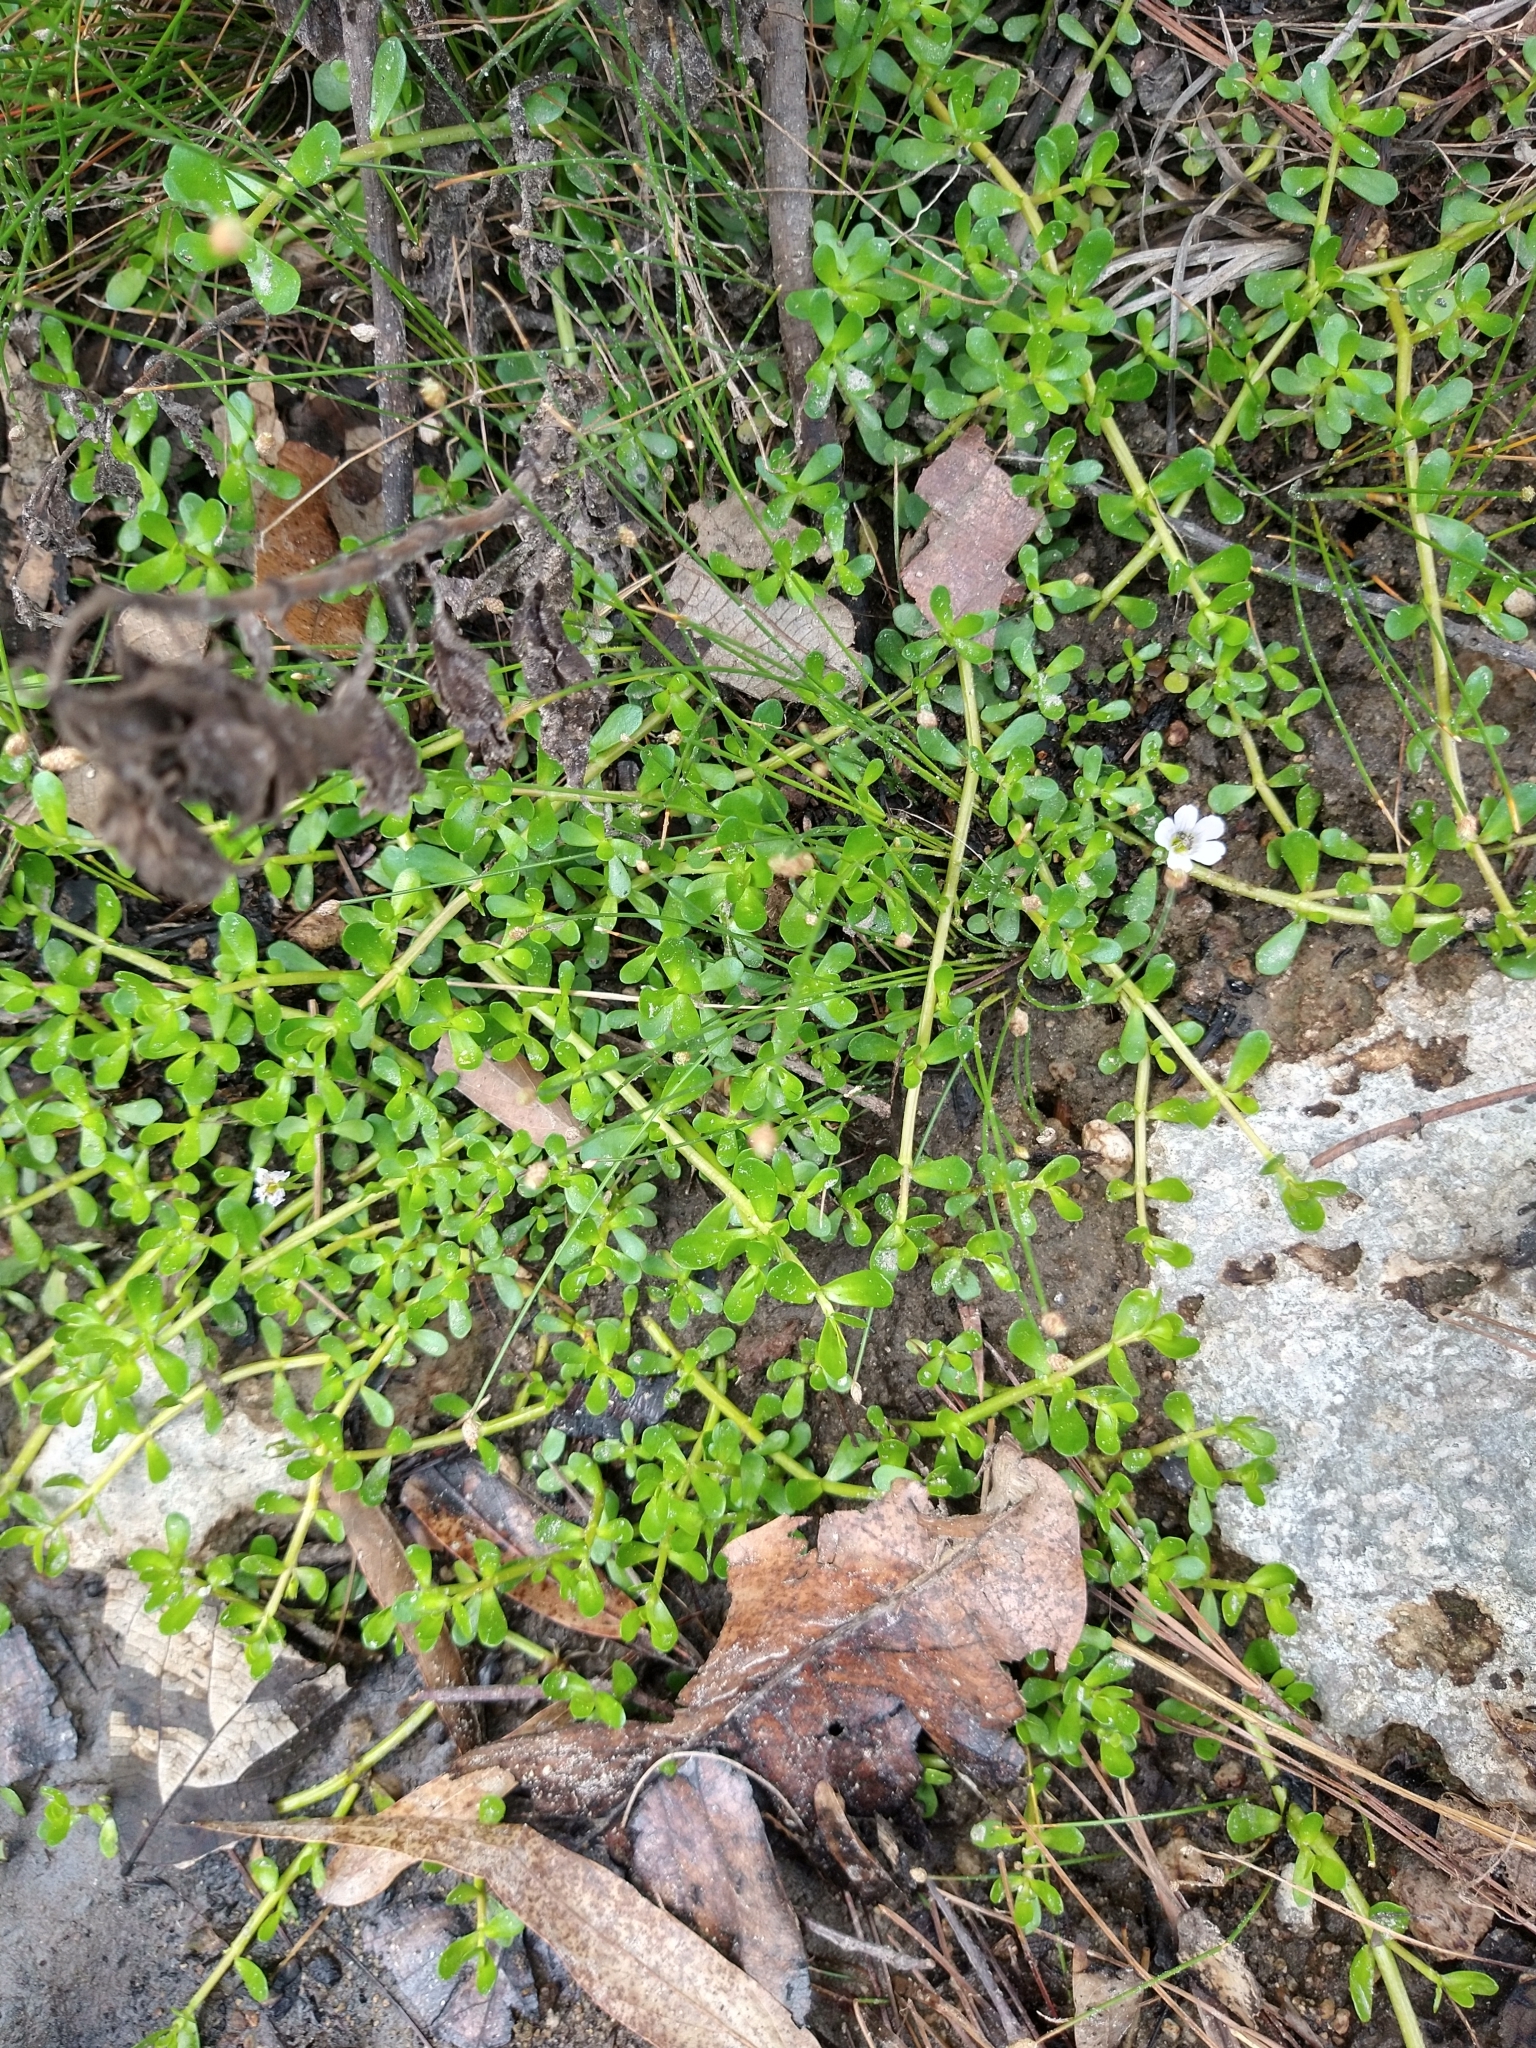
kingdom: Plantae
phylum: Tracheophyta
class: Magnoliopsida
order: Lamiales
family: Plantaginaceae
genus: Bacopa
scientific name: Bacopa monnieri
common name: Indian-pennywort
